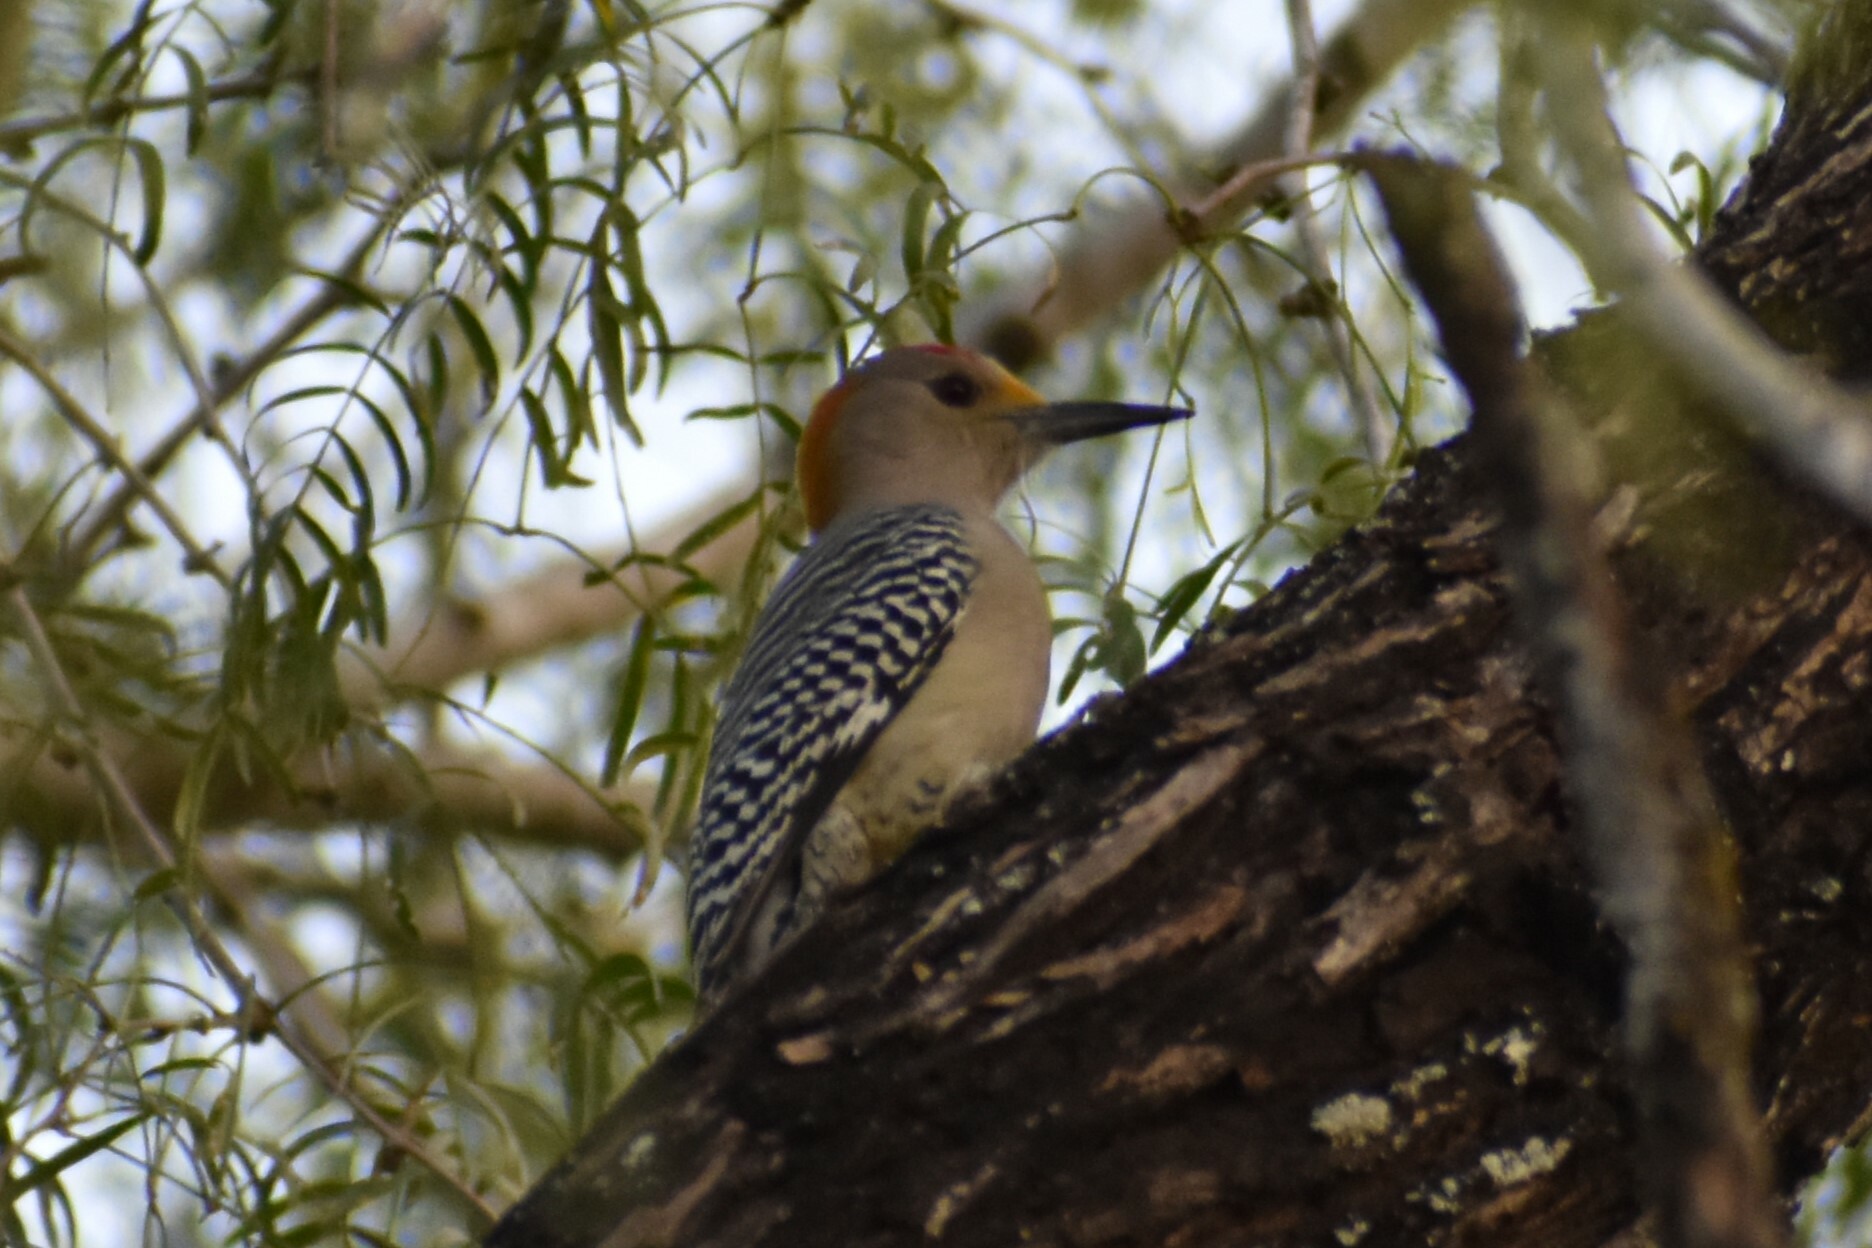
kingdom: Animalia
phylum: Chordata
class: Aves
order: Piciformes
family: Picidae
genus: Melanerpes
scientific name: Melanerpes aurifrons
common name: Golden-fronted woodpecker
